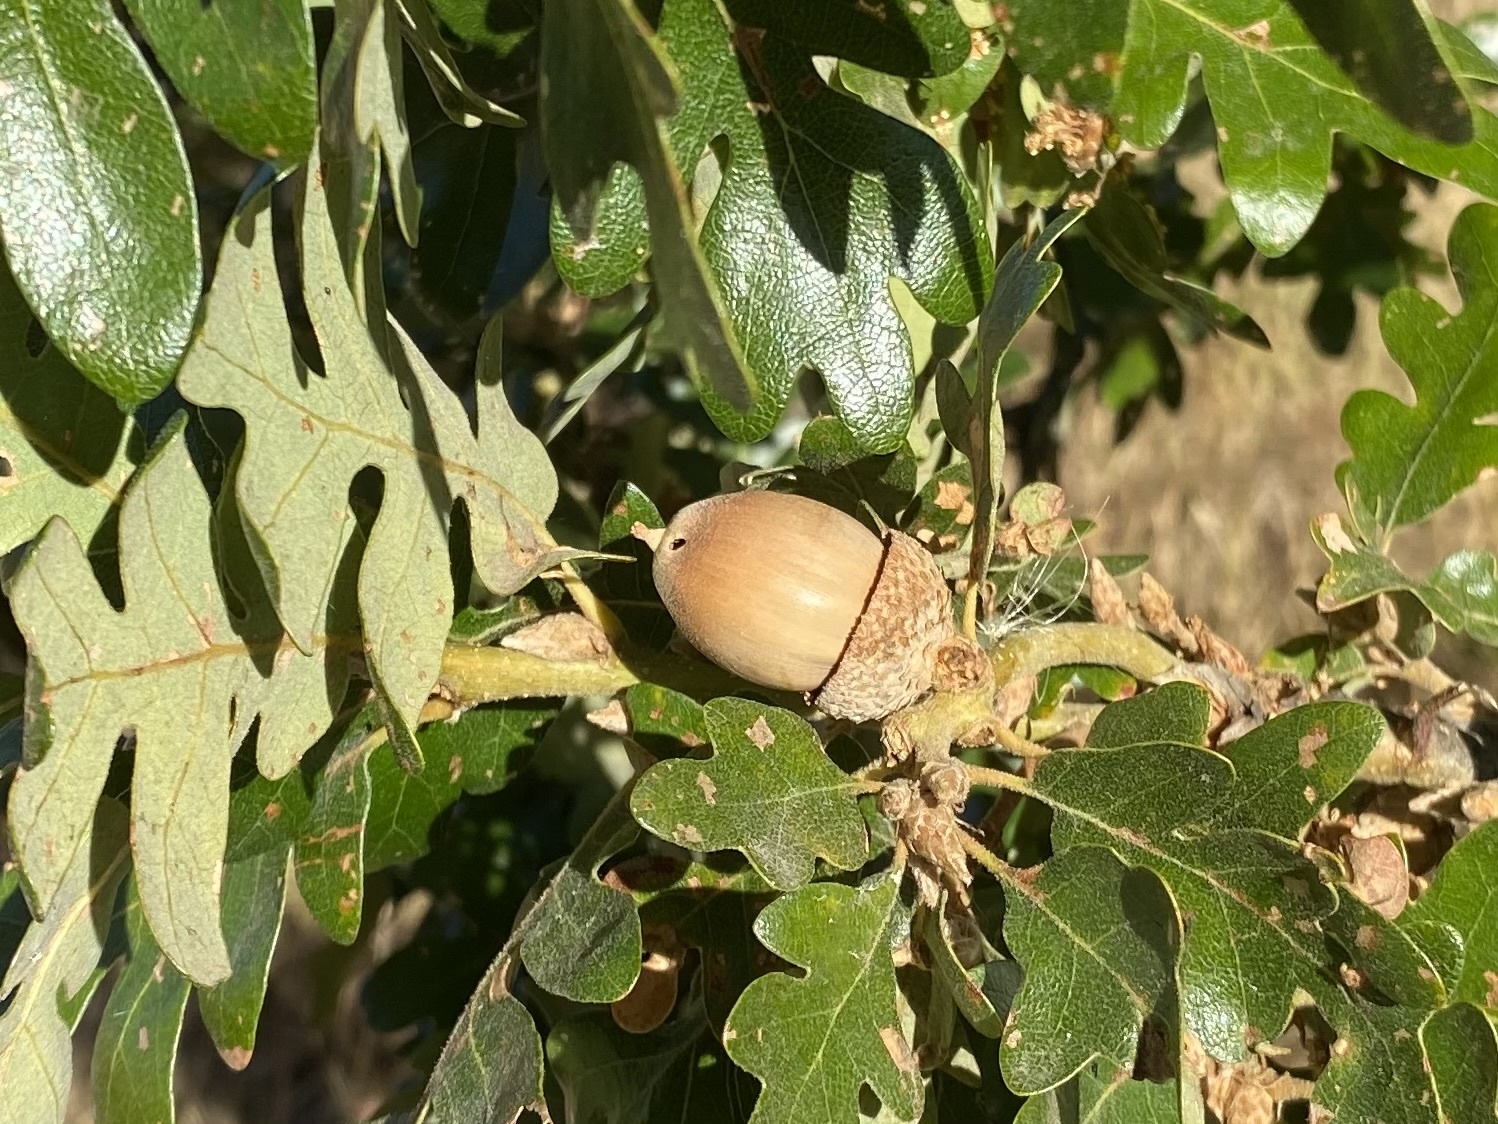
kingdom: Plantae
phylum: Tracheophyta
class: Magnoliopsida
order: Fagales
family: Fagaceae
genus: Quercus
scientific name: Quercus garryana
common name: Garry oak
